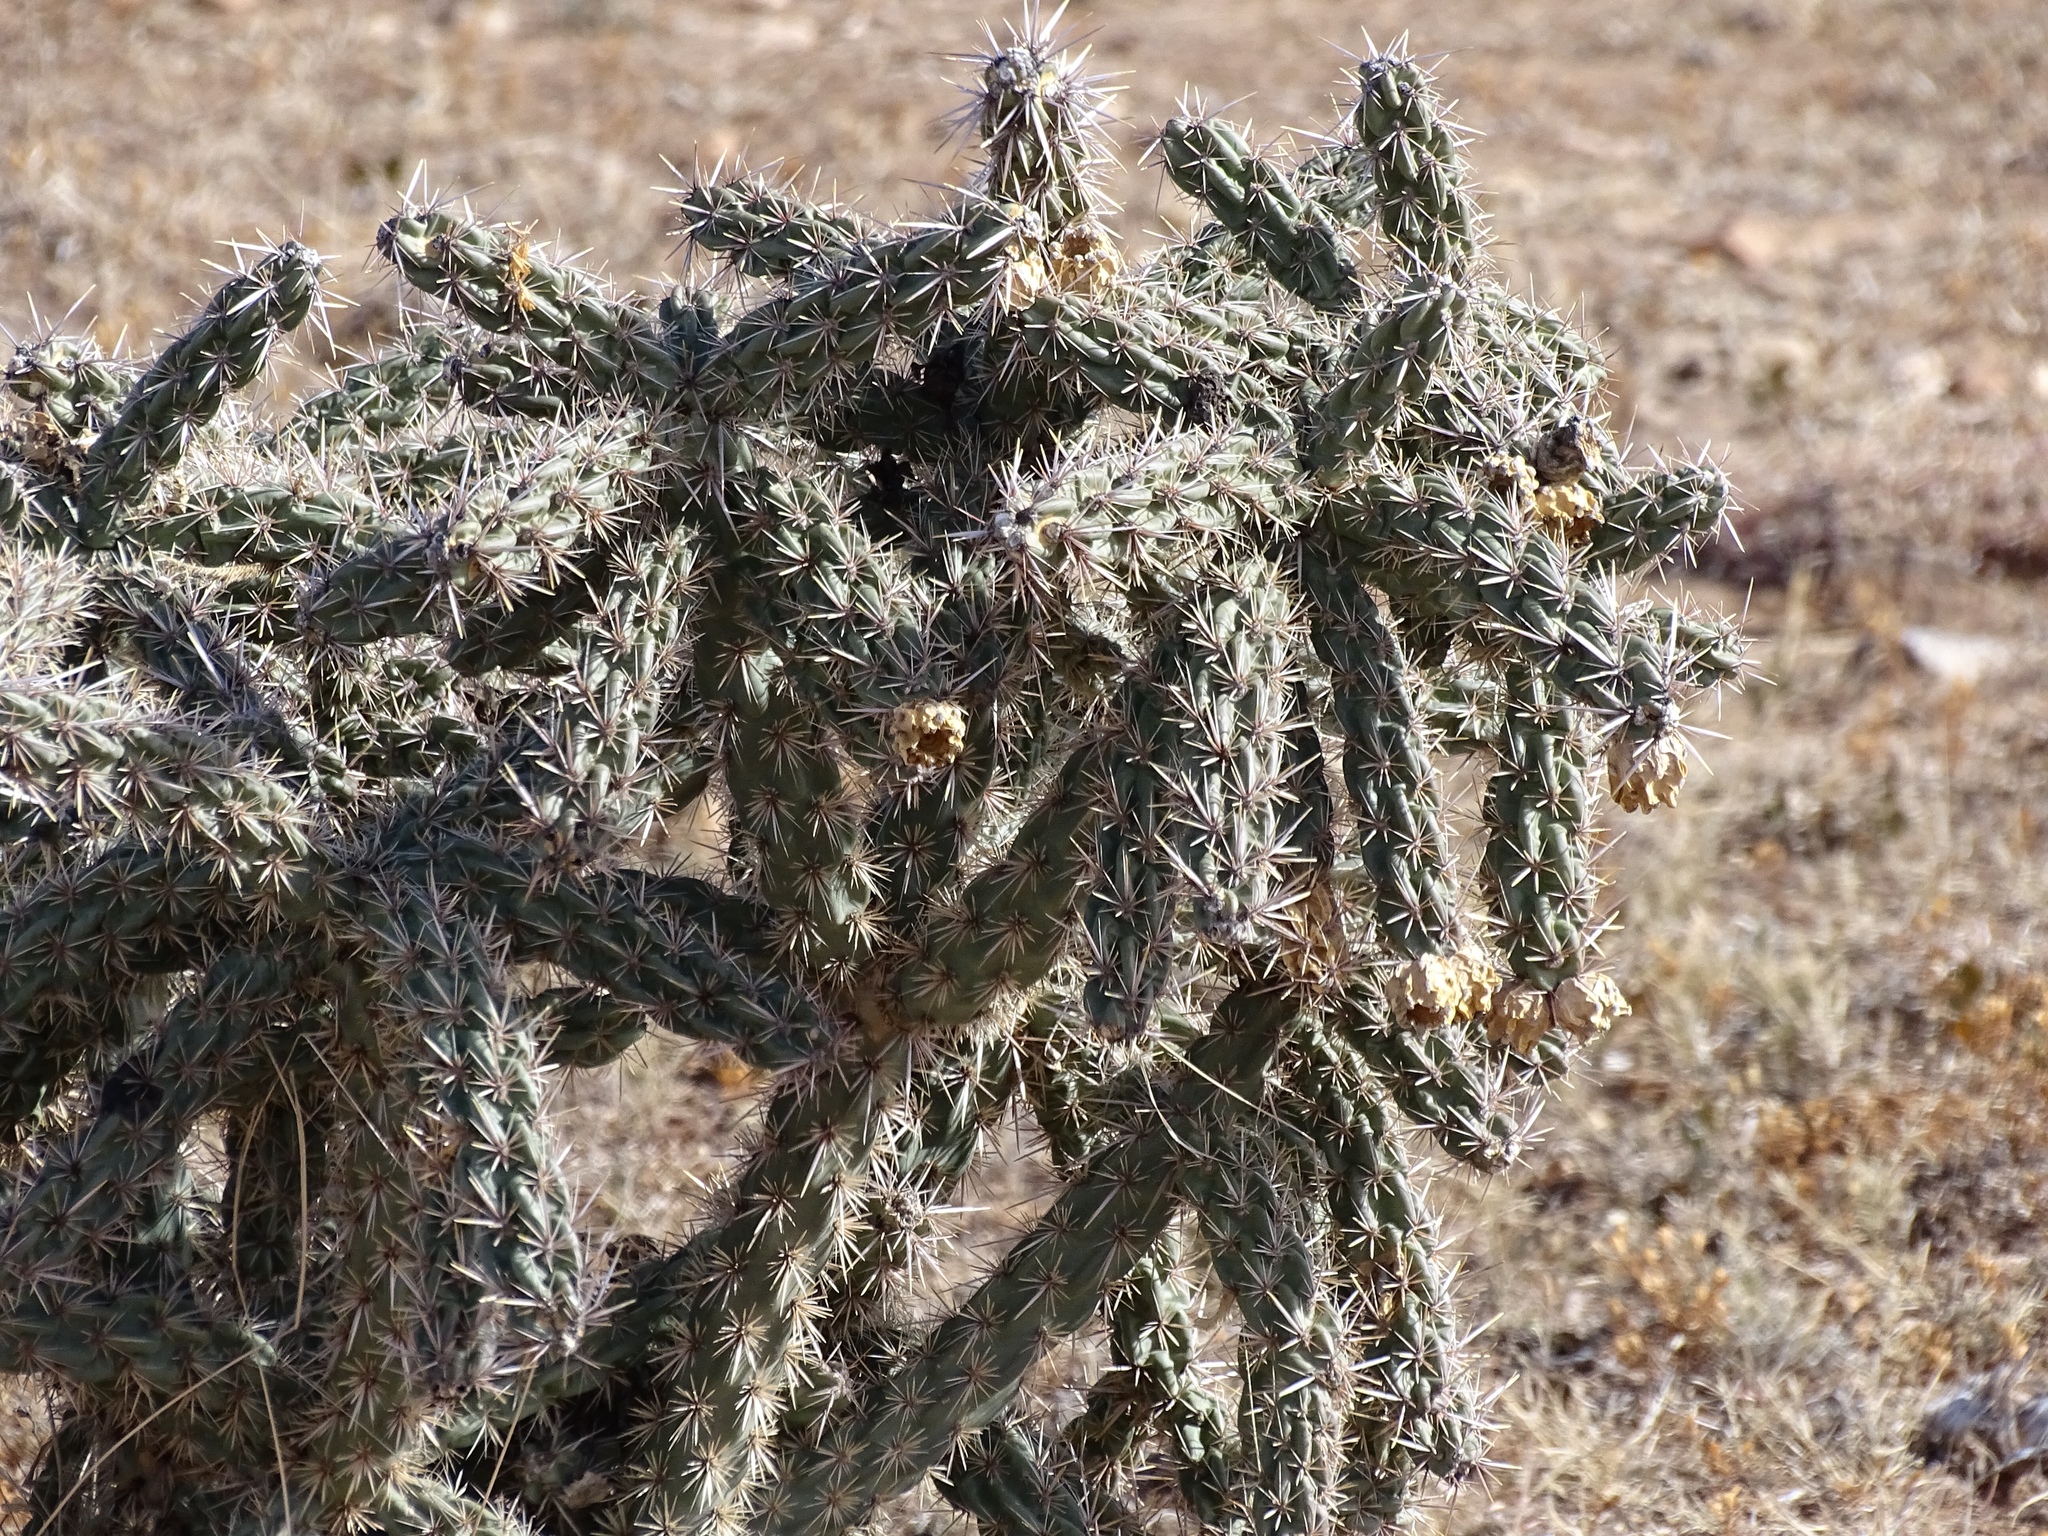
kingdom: Plantae
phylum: Tracheophyta
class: Magnoliopsida
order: Caryophyllales
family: Cactaceae
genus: Cylindropuntia
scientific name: Cylindropuntia imbricata
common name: Candelabrum cactus
